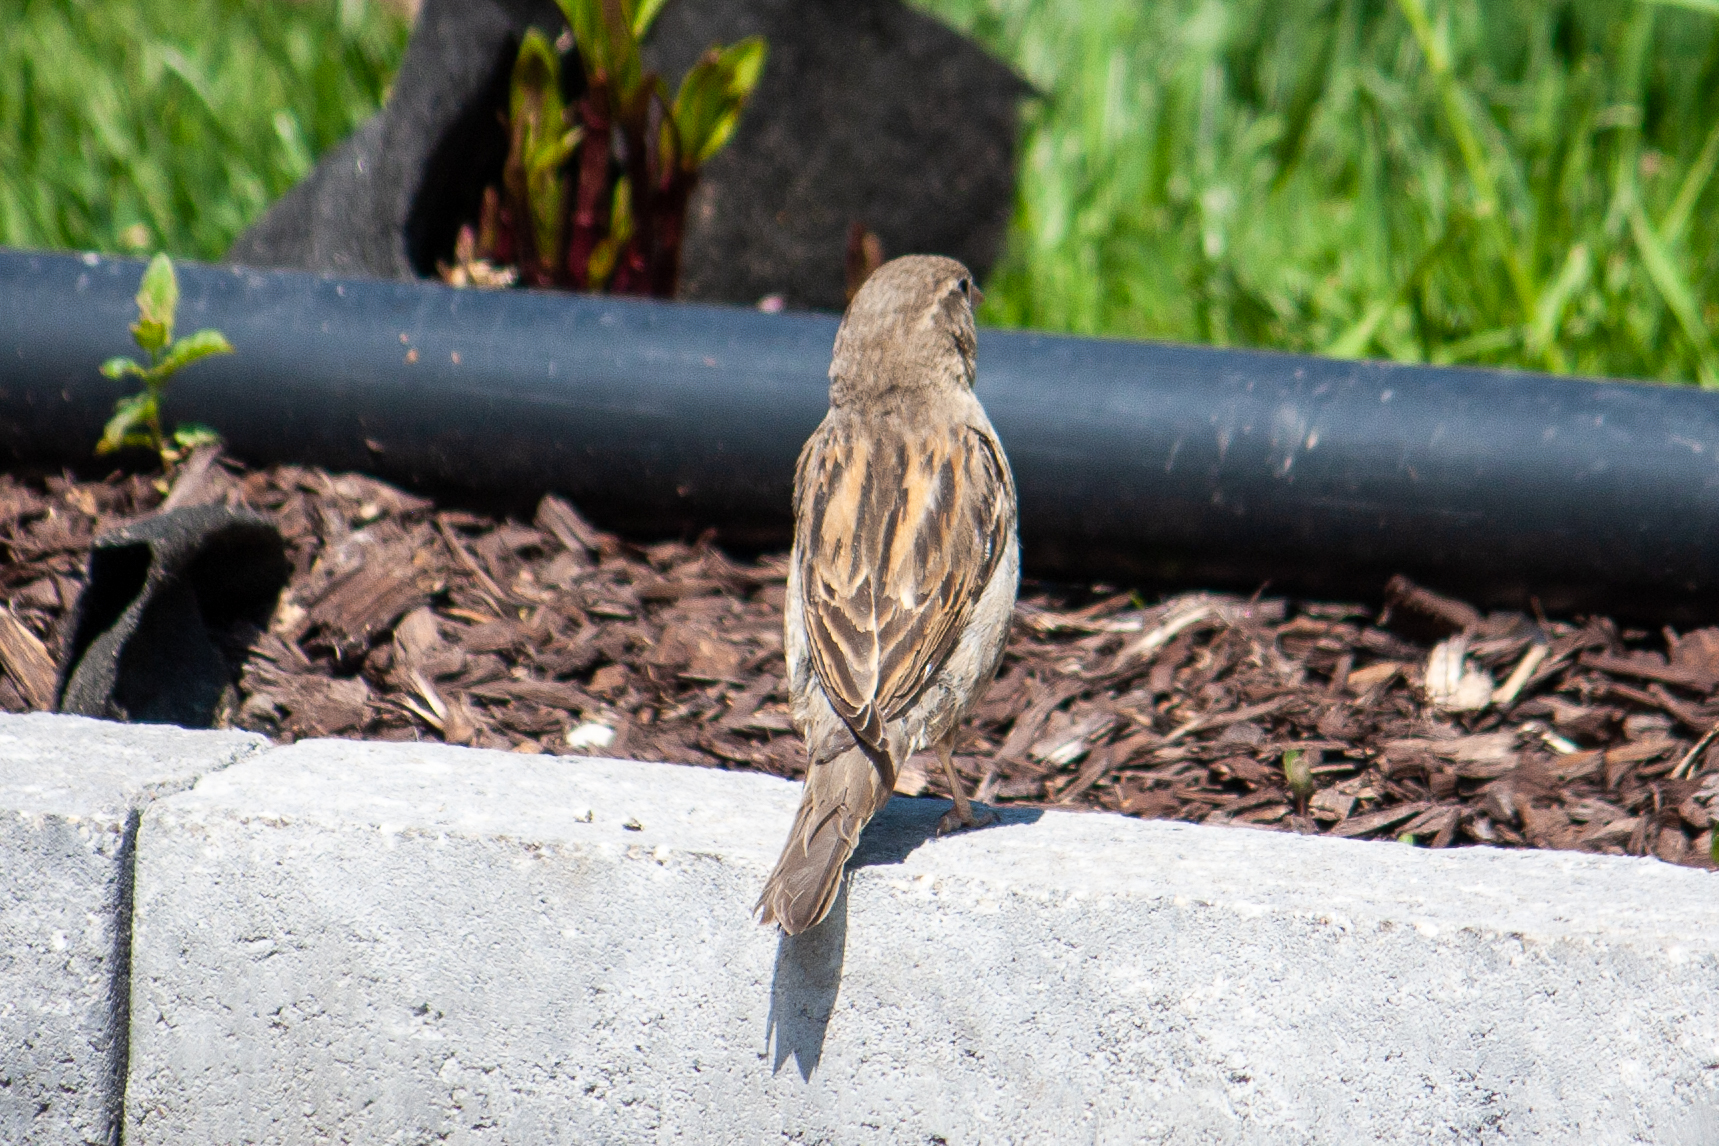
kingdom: Animalia
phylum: Chordata
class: Aves
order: Passeriformes
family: Passeridae
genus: Passer
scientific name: Passer domesticus
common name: House sparrow
